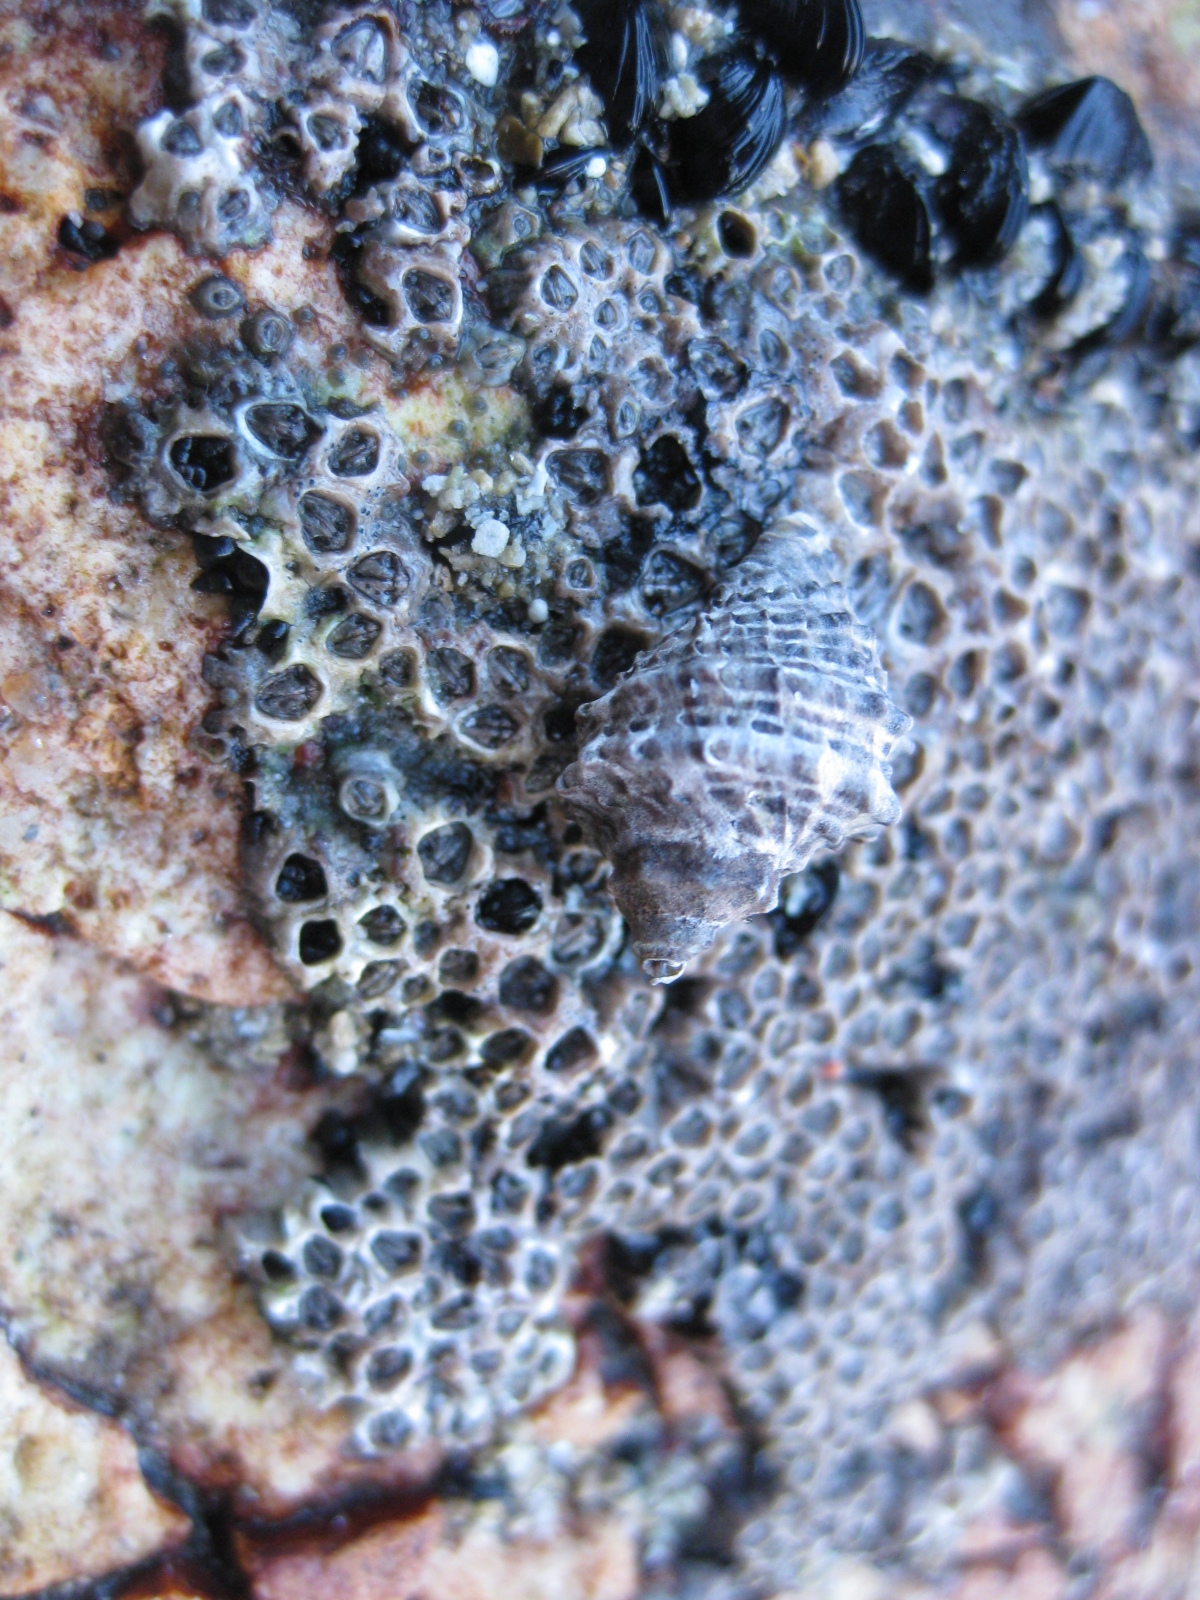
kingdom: Animalia
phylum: Mollusca
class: Gastropoda
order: Neogastropoda
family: Muricidae
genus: Haustrum
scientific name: Haustrum scobina
